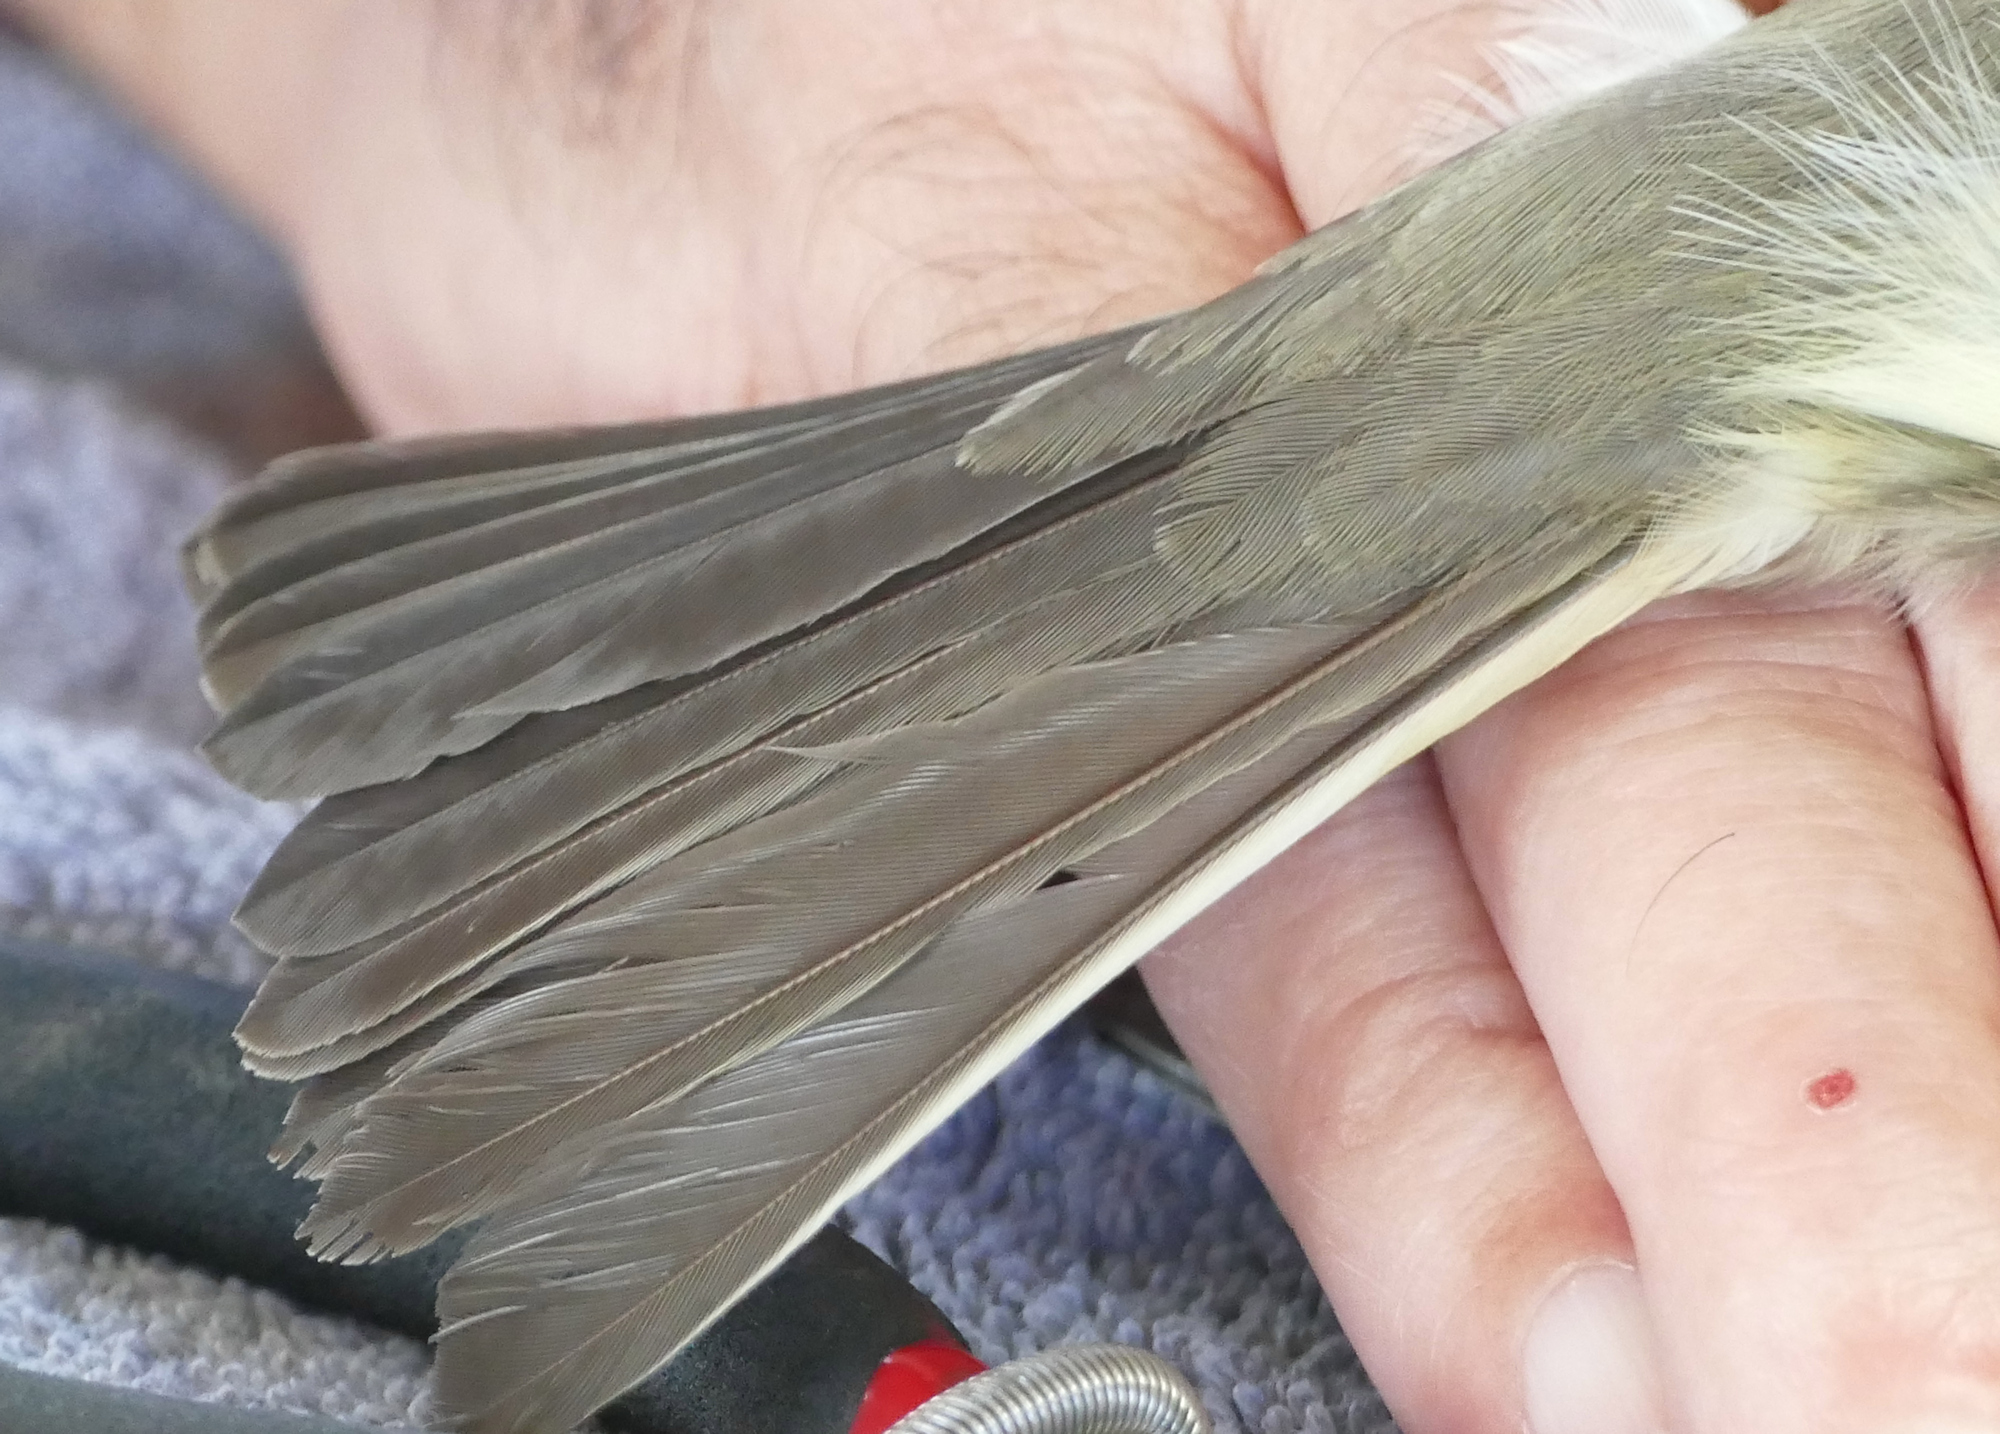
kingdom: Animalia
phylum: Chordata
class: Aves
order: Passeriformes
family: Tyrannidae
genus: Sayornis
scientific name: Sayornis phoebe
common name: Eastern phoebe
